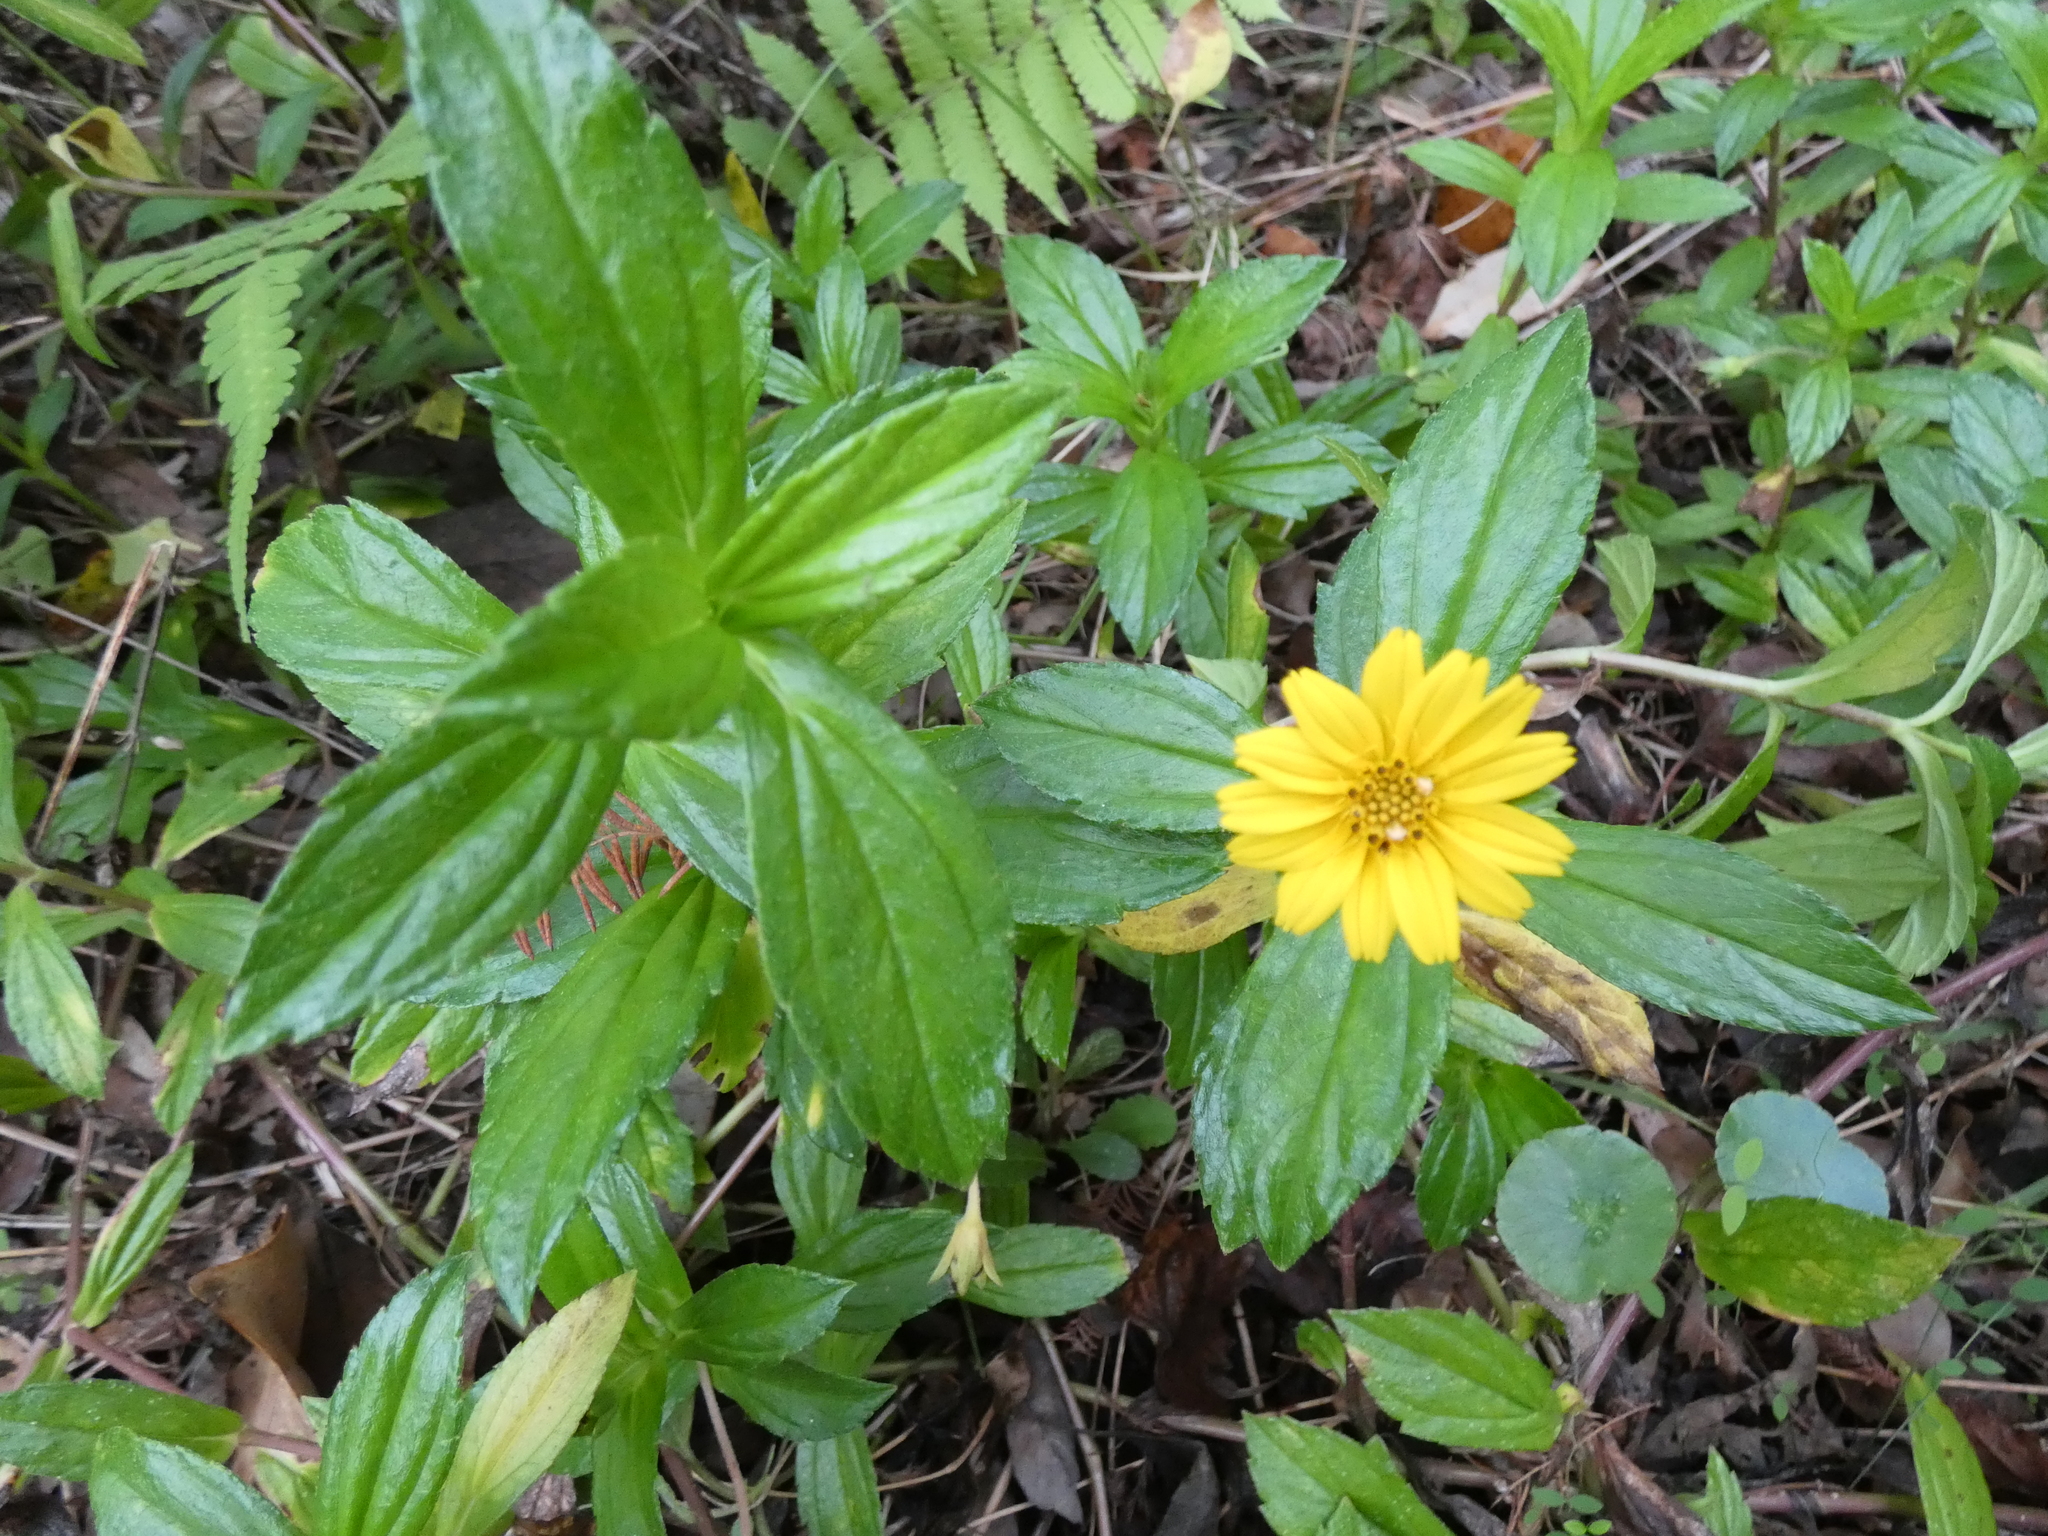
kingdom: Plantae
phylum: Tracheophyta
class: Magnoliopsida
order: Asterales
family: Asteraceae
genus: Sphagneticola
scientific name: Sphagneticola trilobata
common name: Bay biscayne creeping-oxeye
